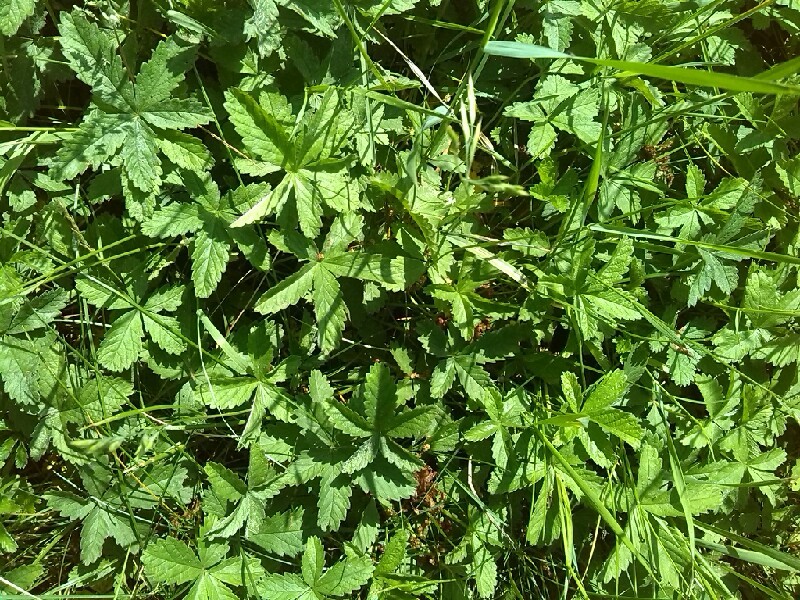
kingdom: Plantae
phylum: Tracheophyta
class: Magnoliopsida
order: Rosales
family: Rosaceae
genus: Potentilla
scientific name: Potentilla reptans
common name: Creeping cinquefoil
